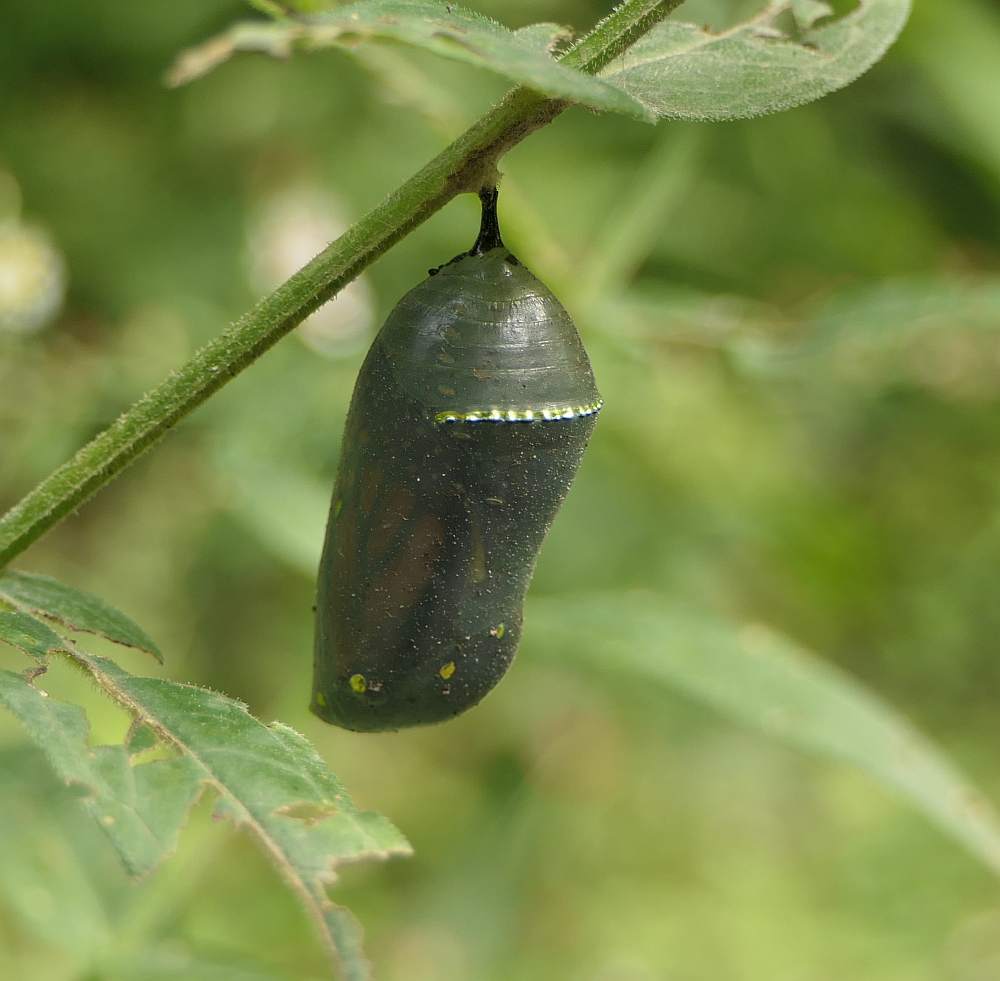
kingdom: Animalia
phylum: Arthropoda
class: Insecta
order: Lepidoptera
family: Nymphalidae
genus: Danaus
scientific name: Danaus plexippus
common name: Monarch
